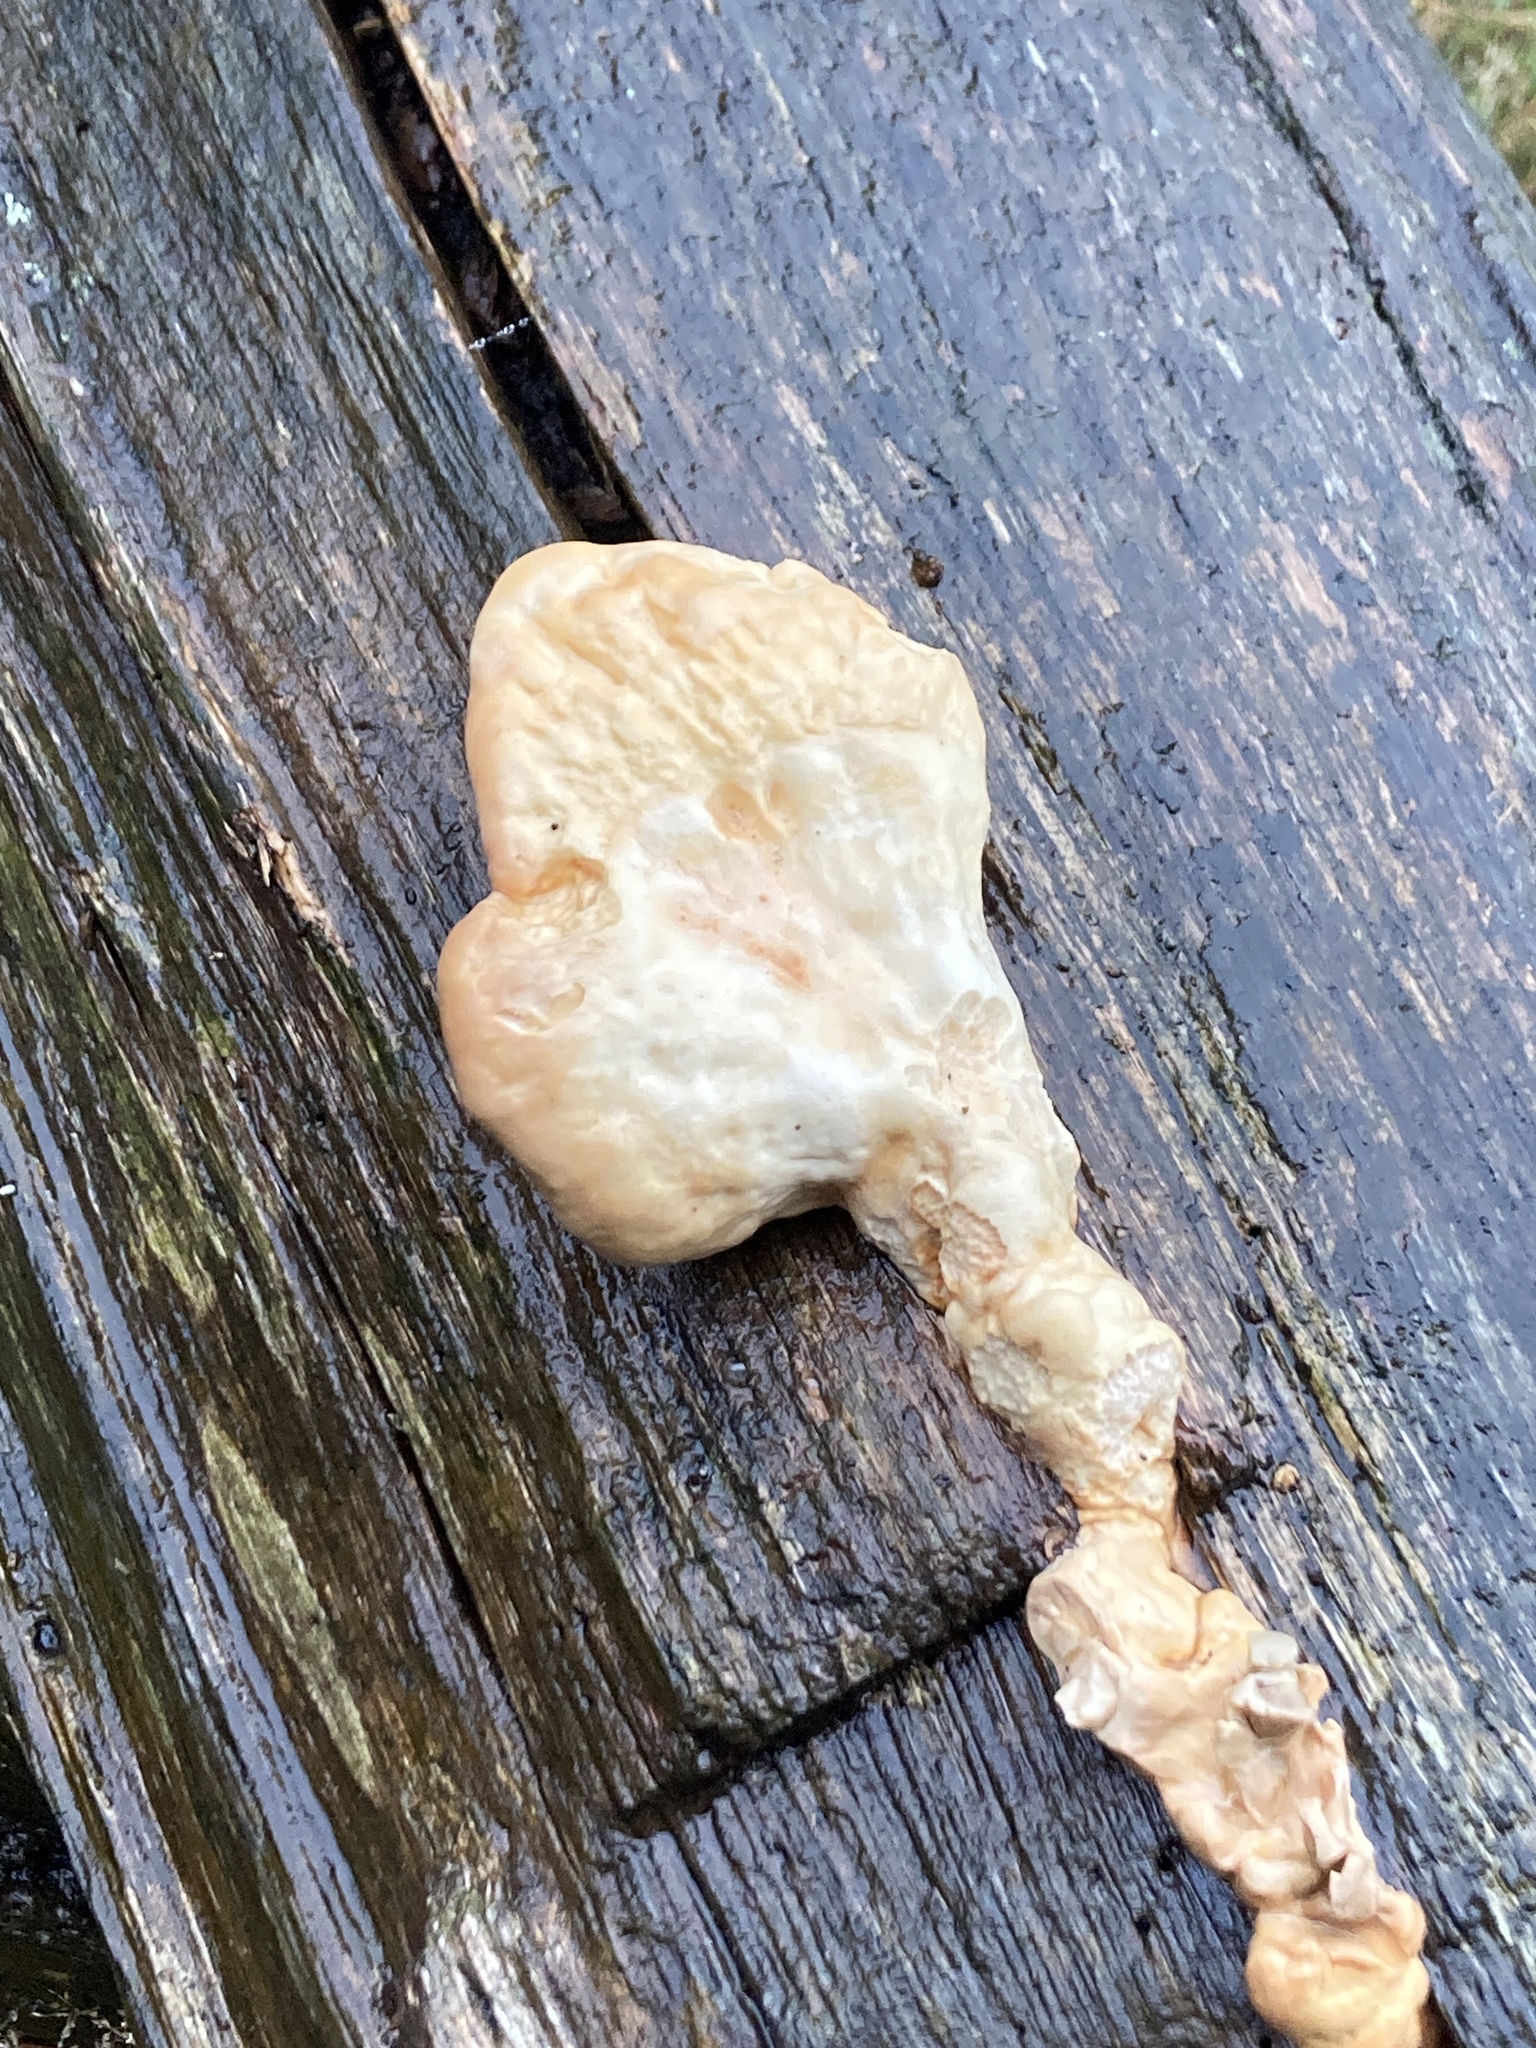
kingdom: Fungi
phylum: Basidiomycota
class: Agaricomycetes
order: Polyporales
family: Laetiporaceae
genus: Laetiporus
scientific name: Laetiporus sulphureus
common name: Chicken of the woods
